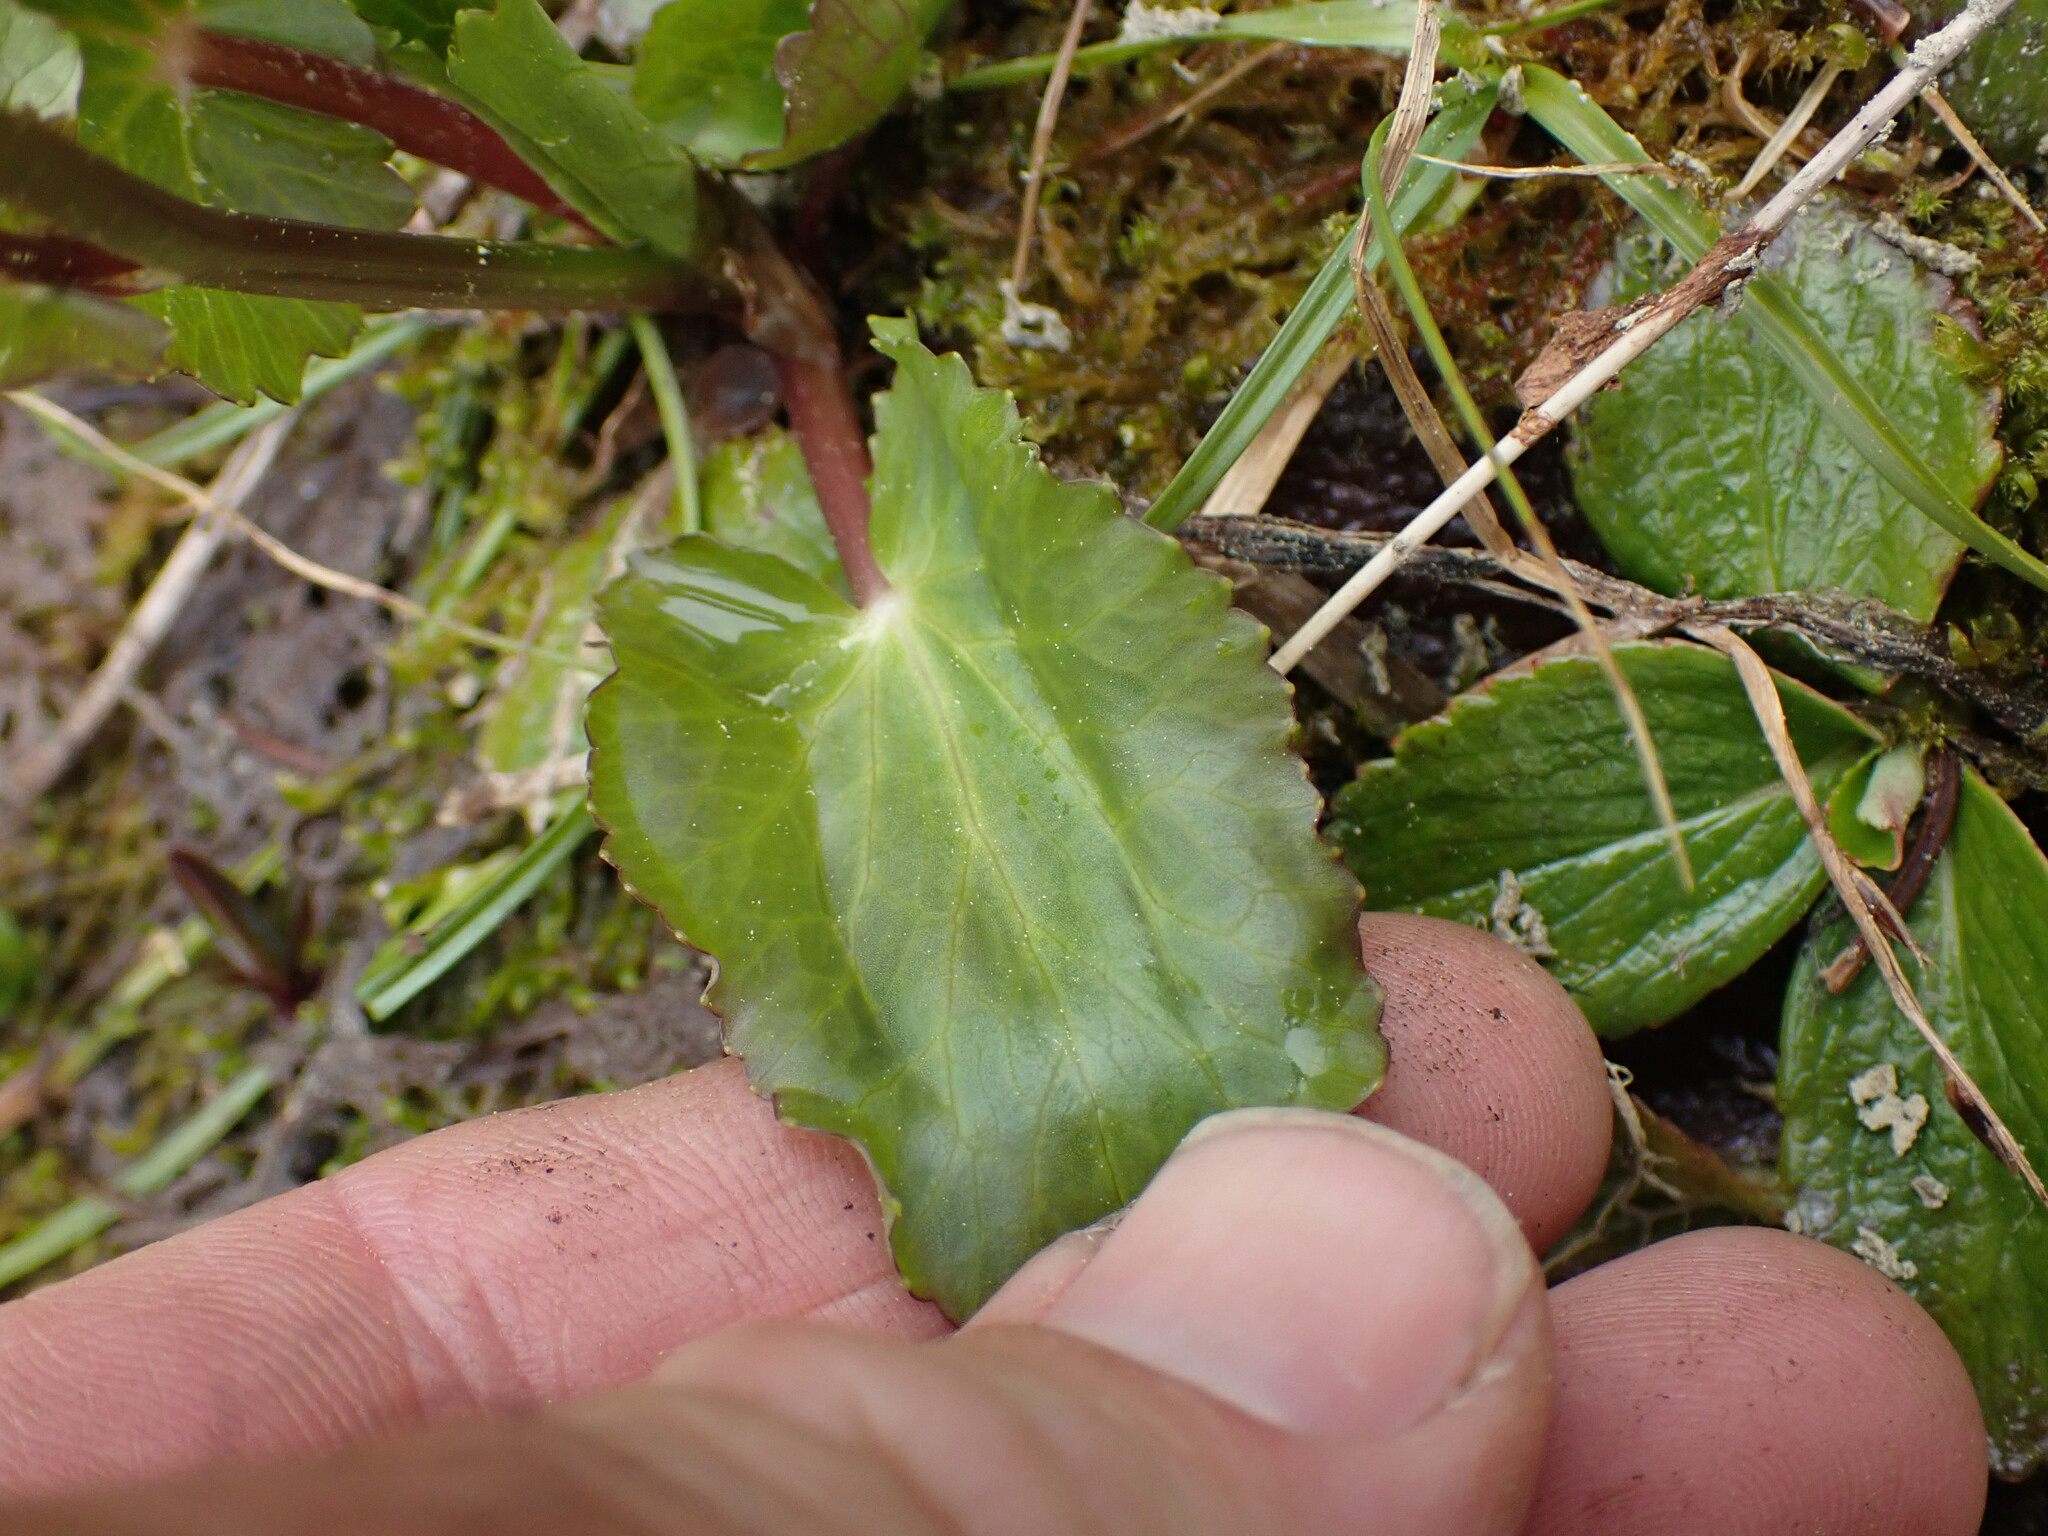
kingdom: Plantae
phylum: Tracheophyta
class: Magnoliopsida
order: Ranunculales
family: Ranunculaceae
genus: Caltha
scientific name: Caltha leptosepala
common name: Elkslip
